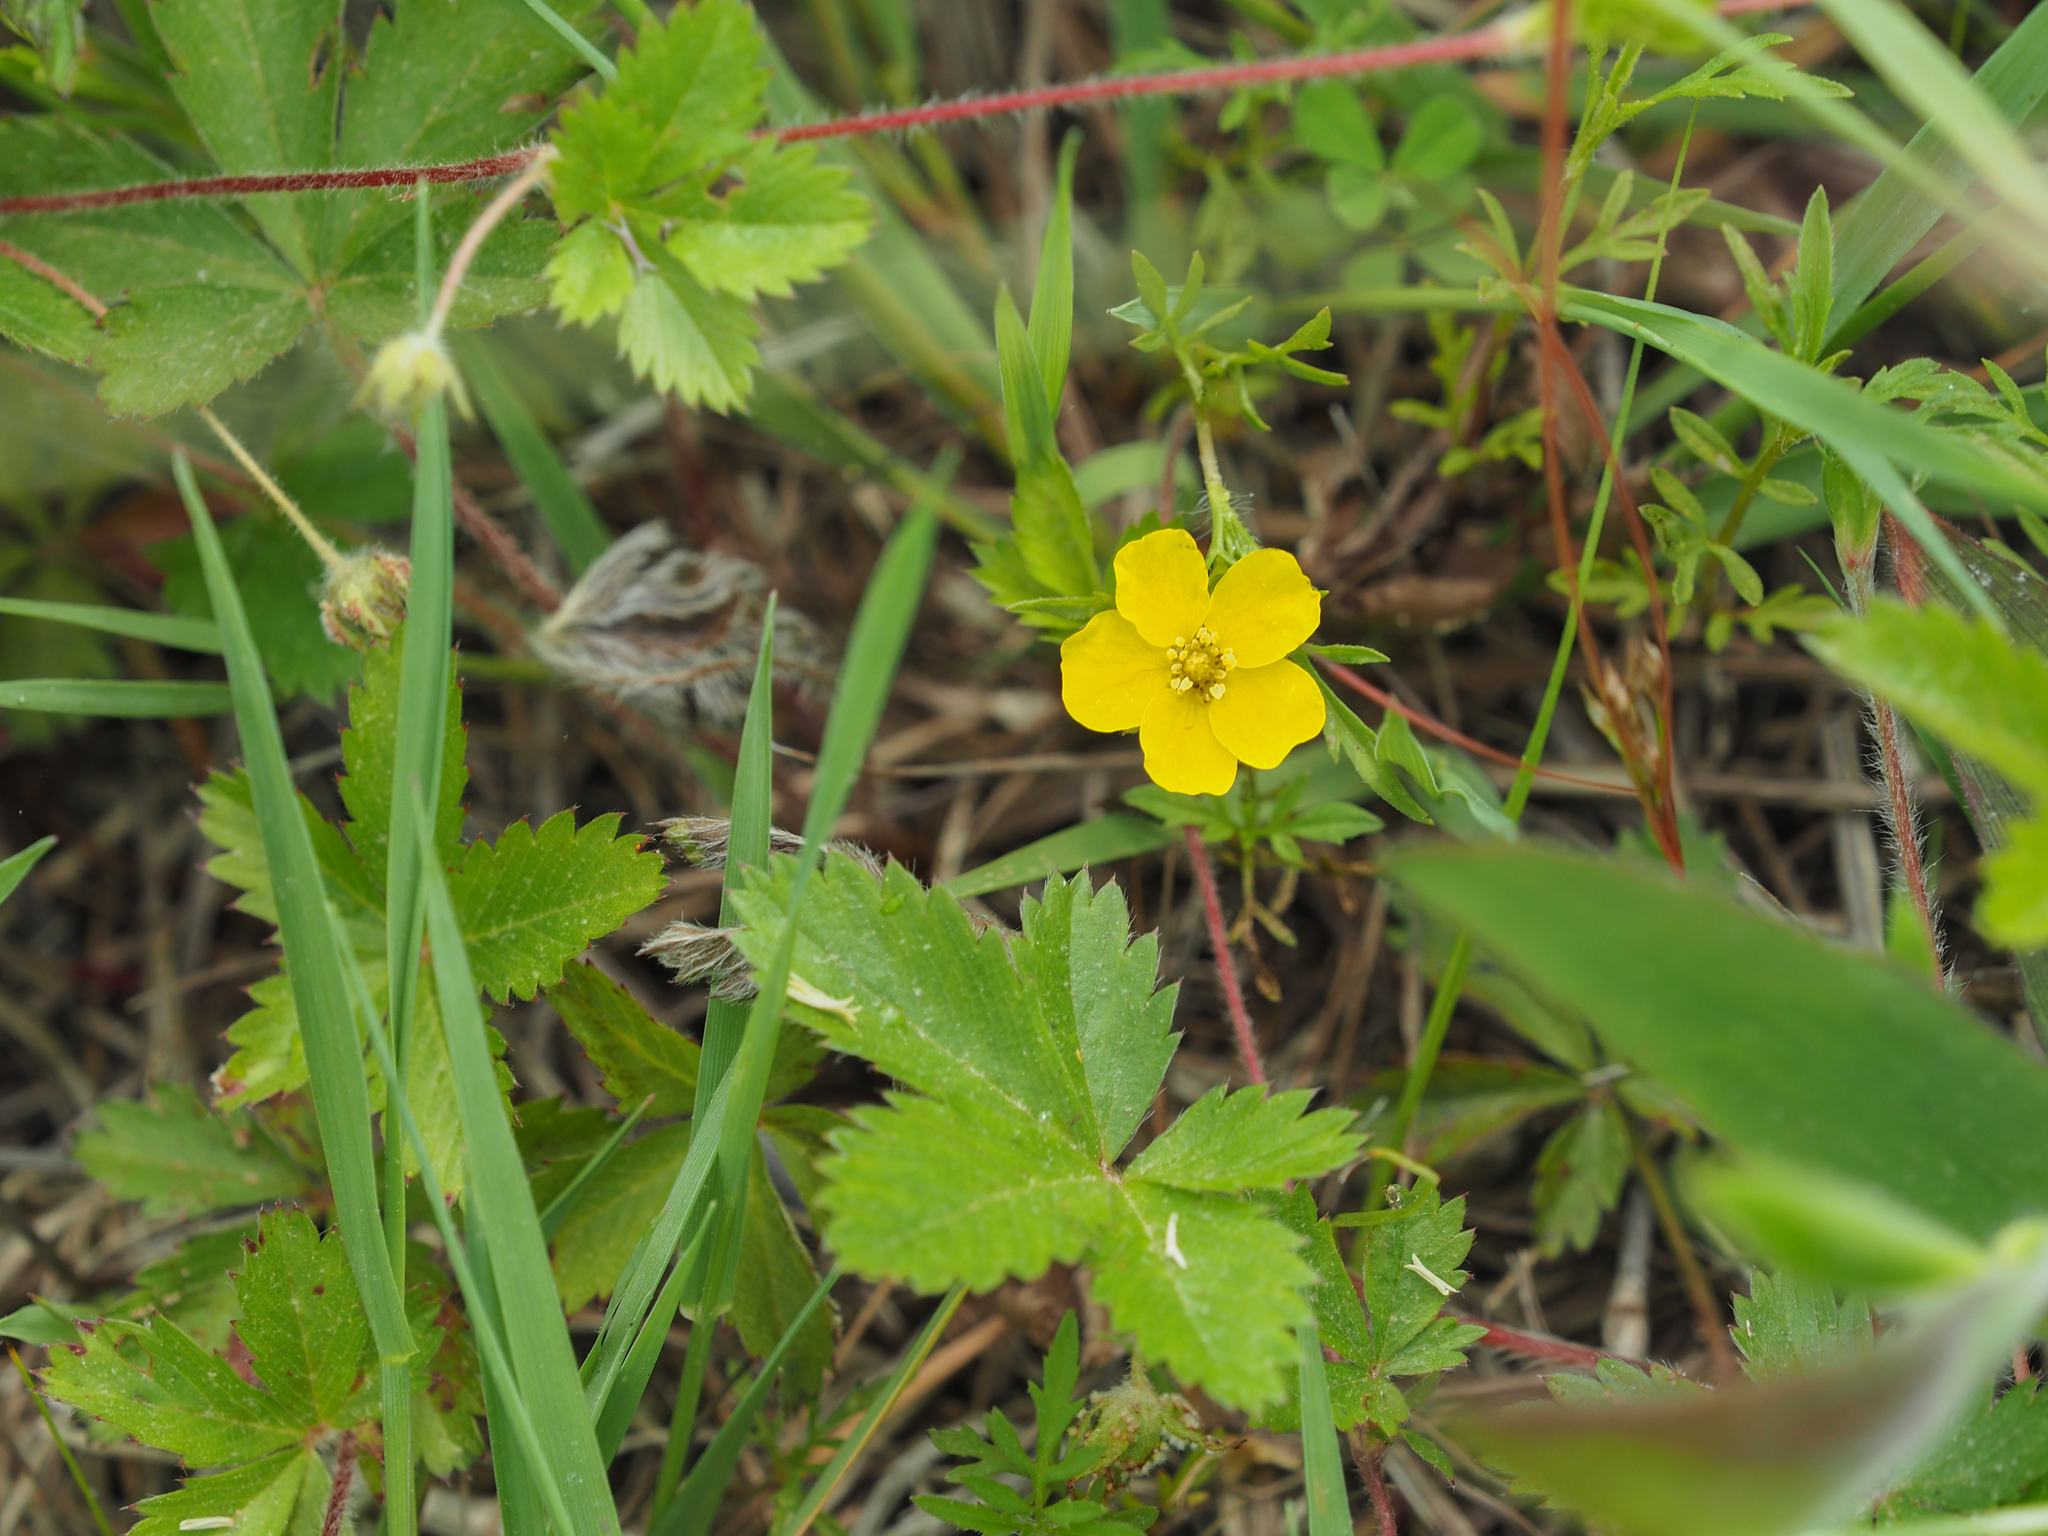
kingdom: Plantae
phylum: Tracheophyta
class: Magnoliopsida
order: Rosales
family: Rosaceae
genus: Potentilla
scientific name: Potentilla simplex
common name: Old field cinquefoil
